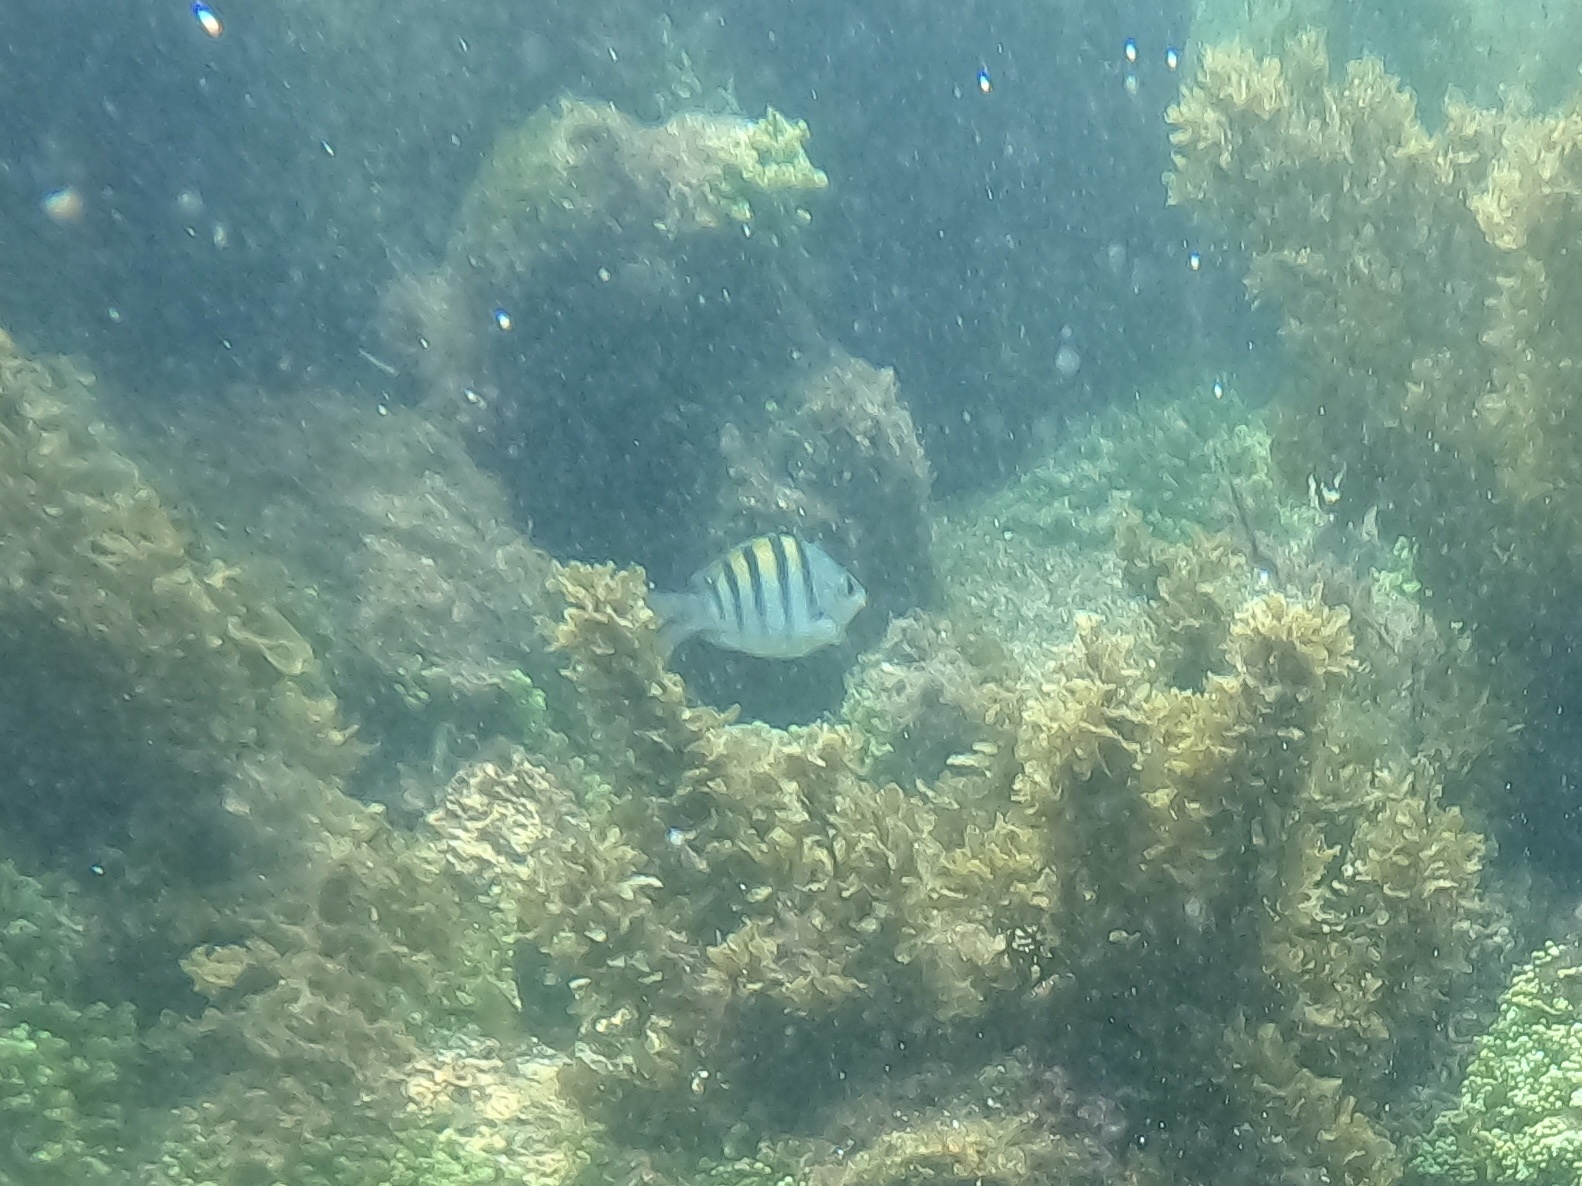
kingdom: Animalia
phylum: Chordata
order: Perciformes
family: Pomacentridae
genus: Abudefduf
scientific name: Abudefduf troschelii
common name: Panamic sergeant major
